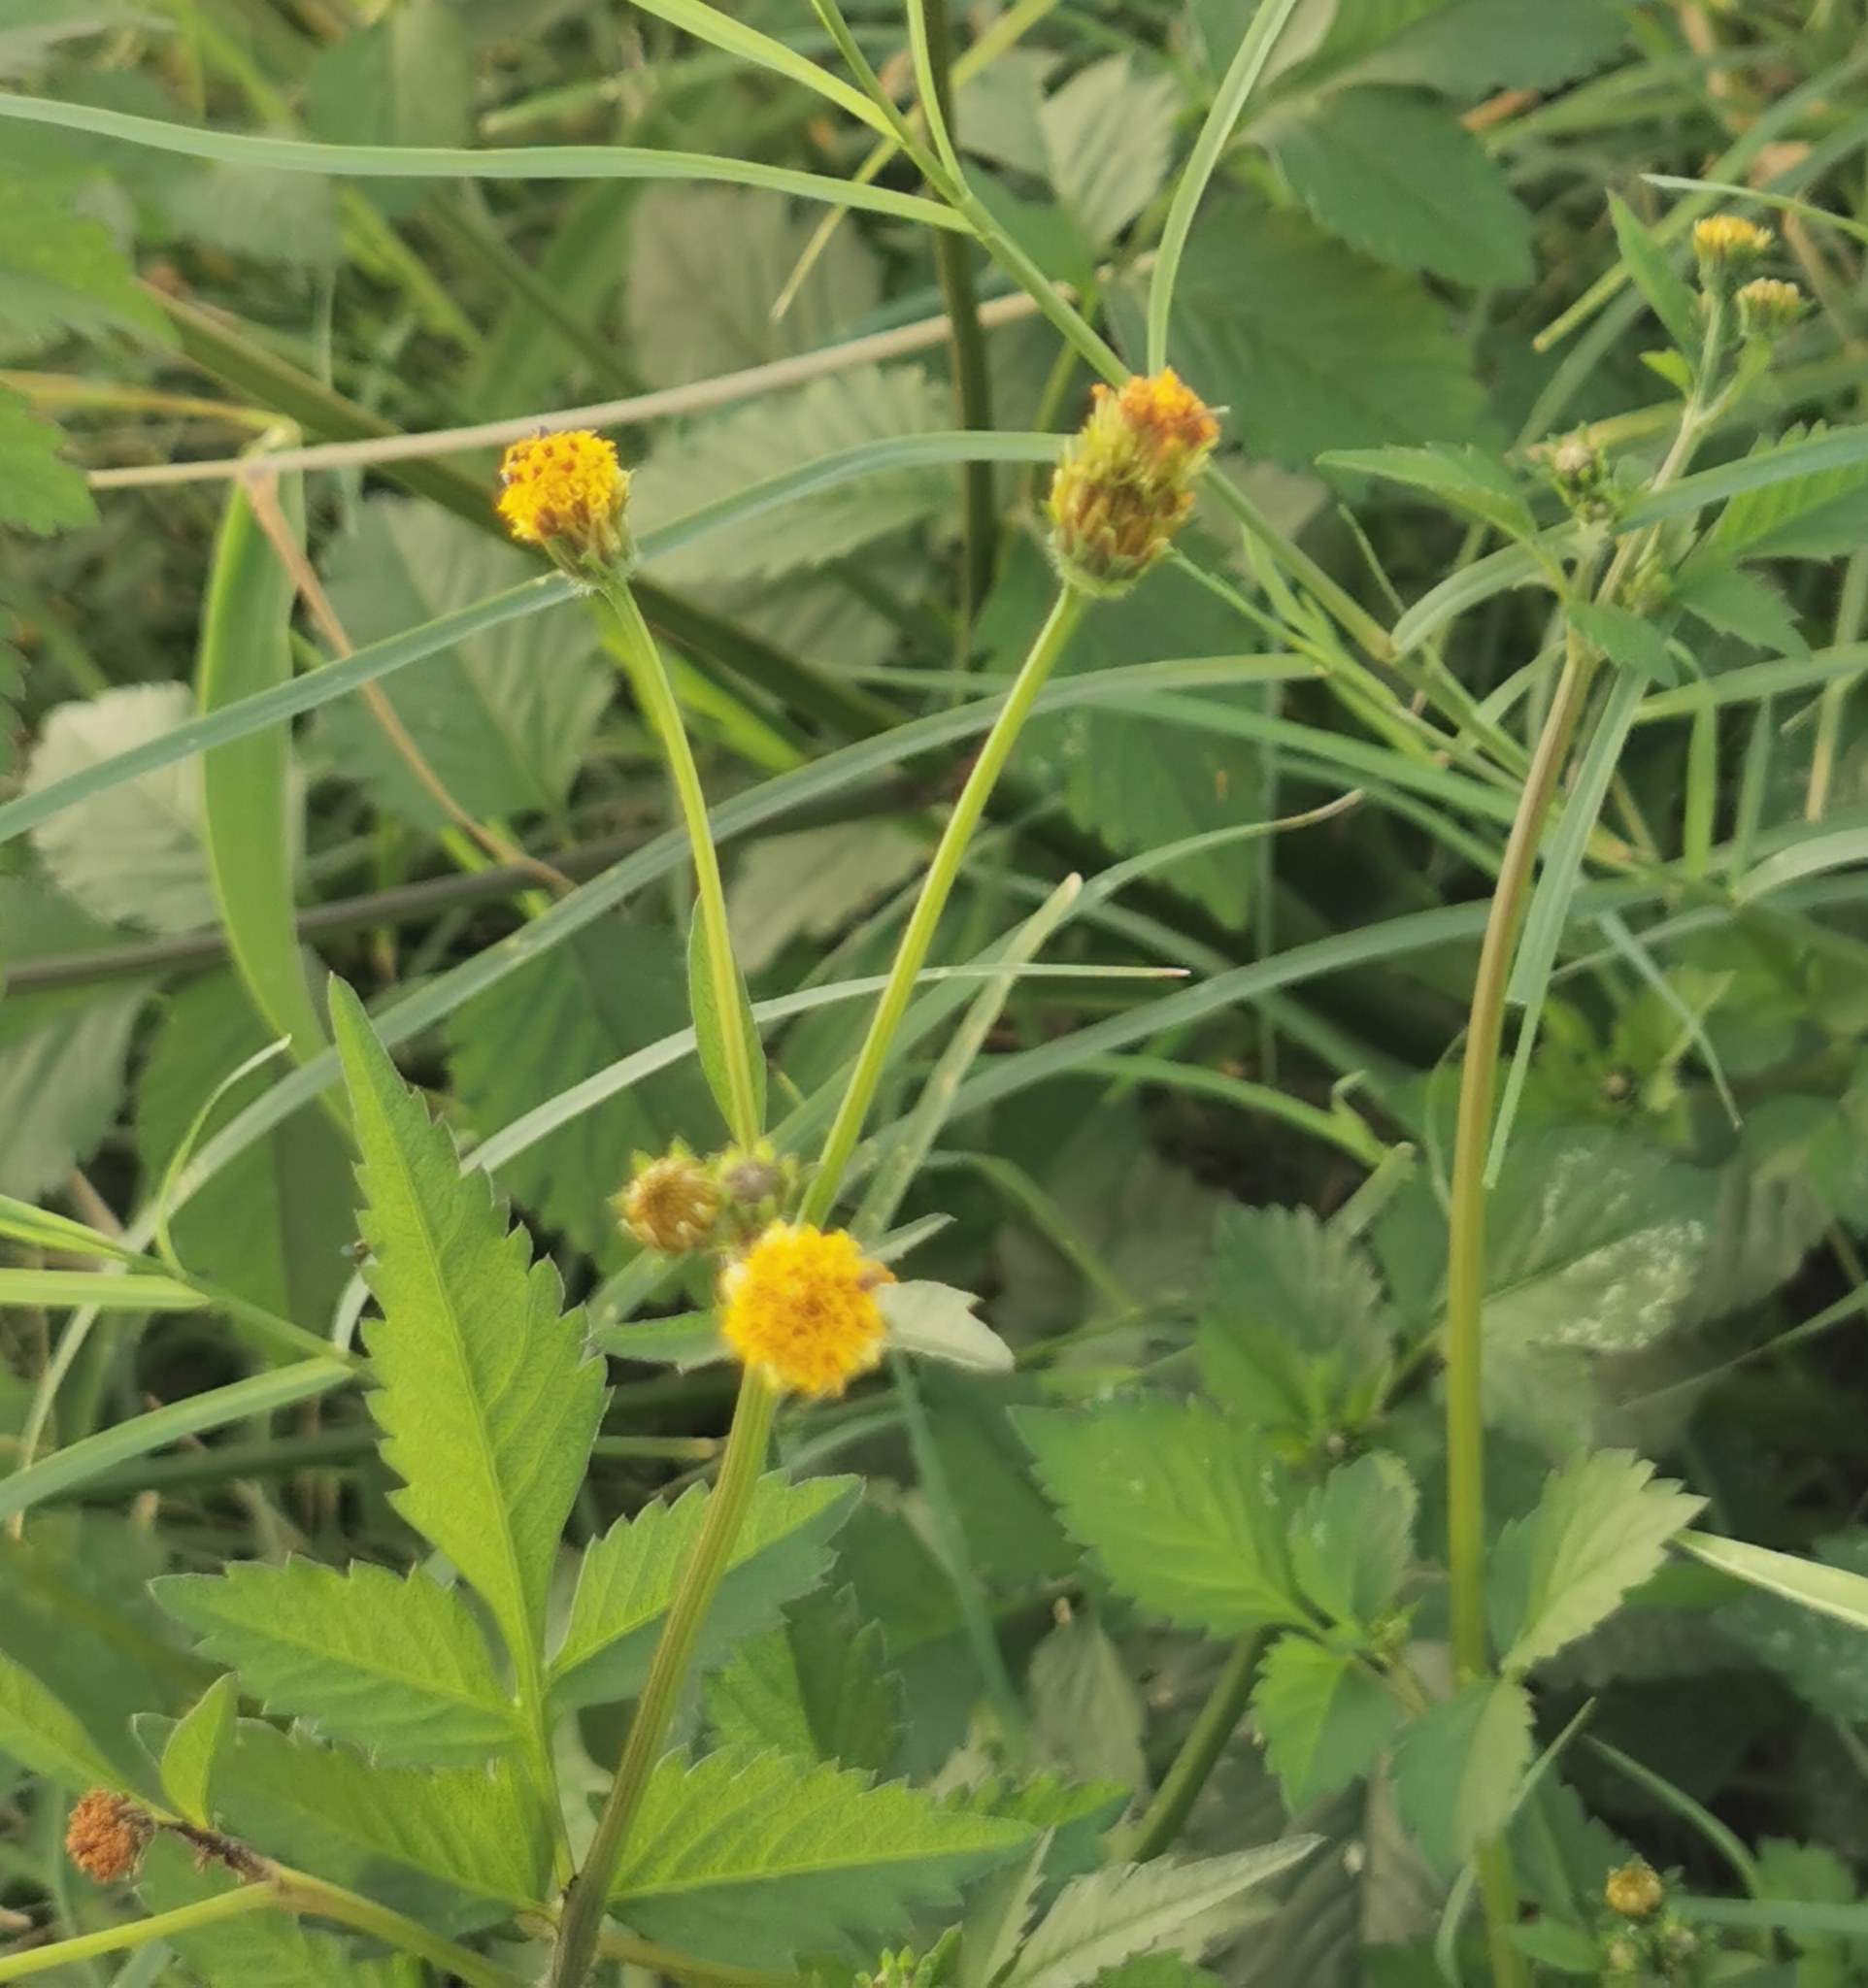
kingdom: Plantae
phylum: Tracheophyta
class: Magnoliopsida
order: Asterales
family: Asteraceae
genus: Bidens
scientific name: Bidens pilosa
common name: Black-jack
